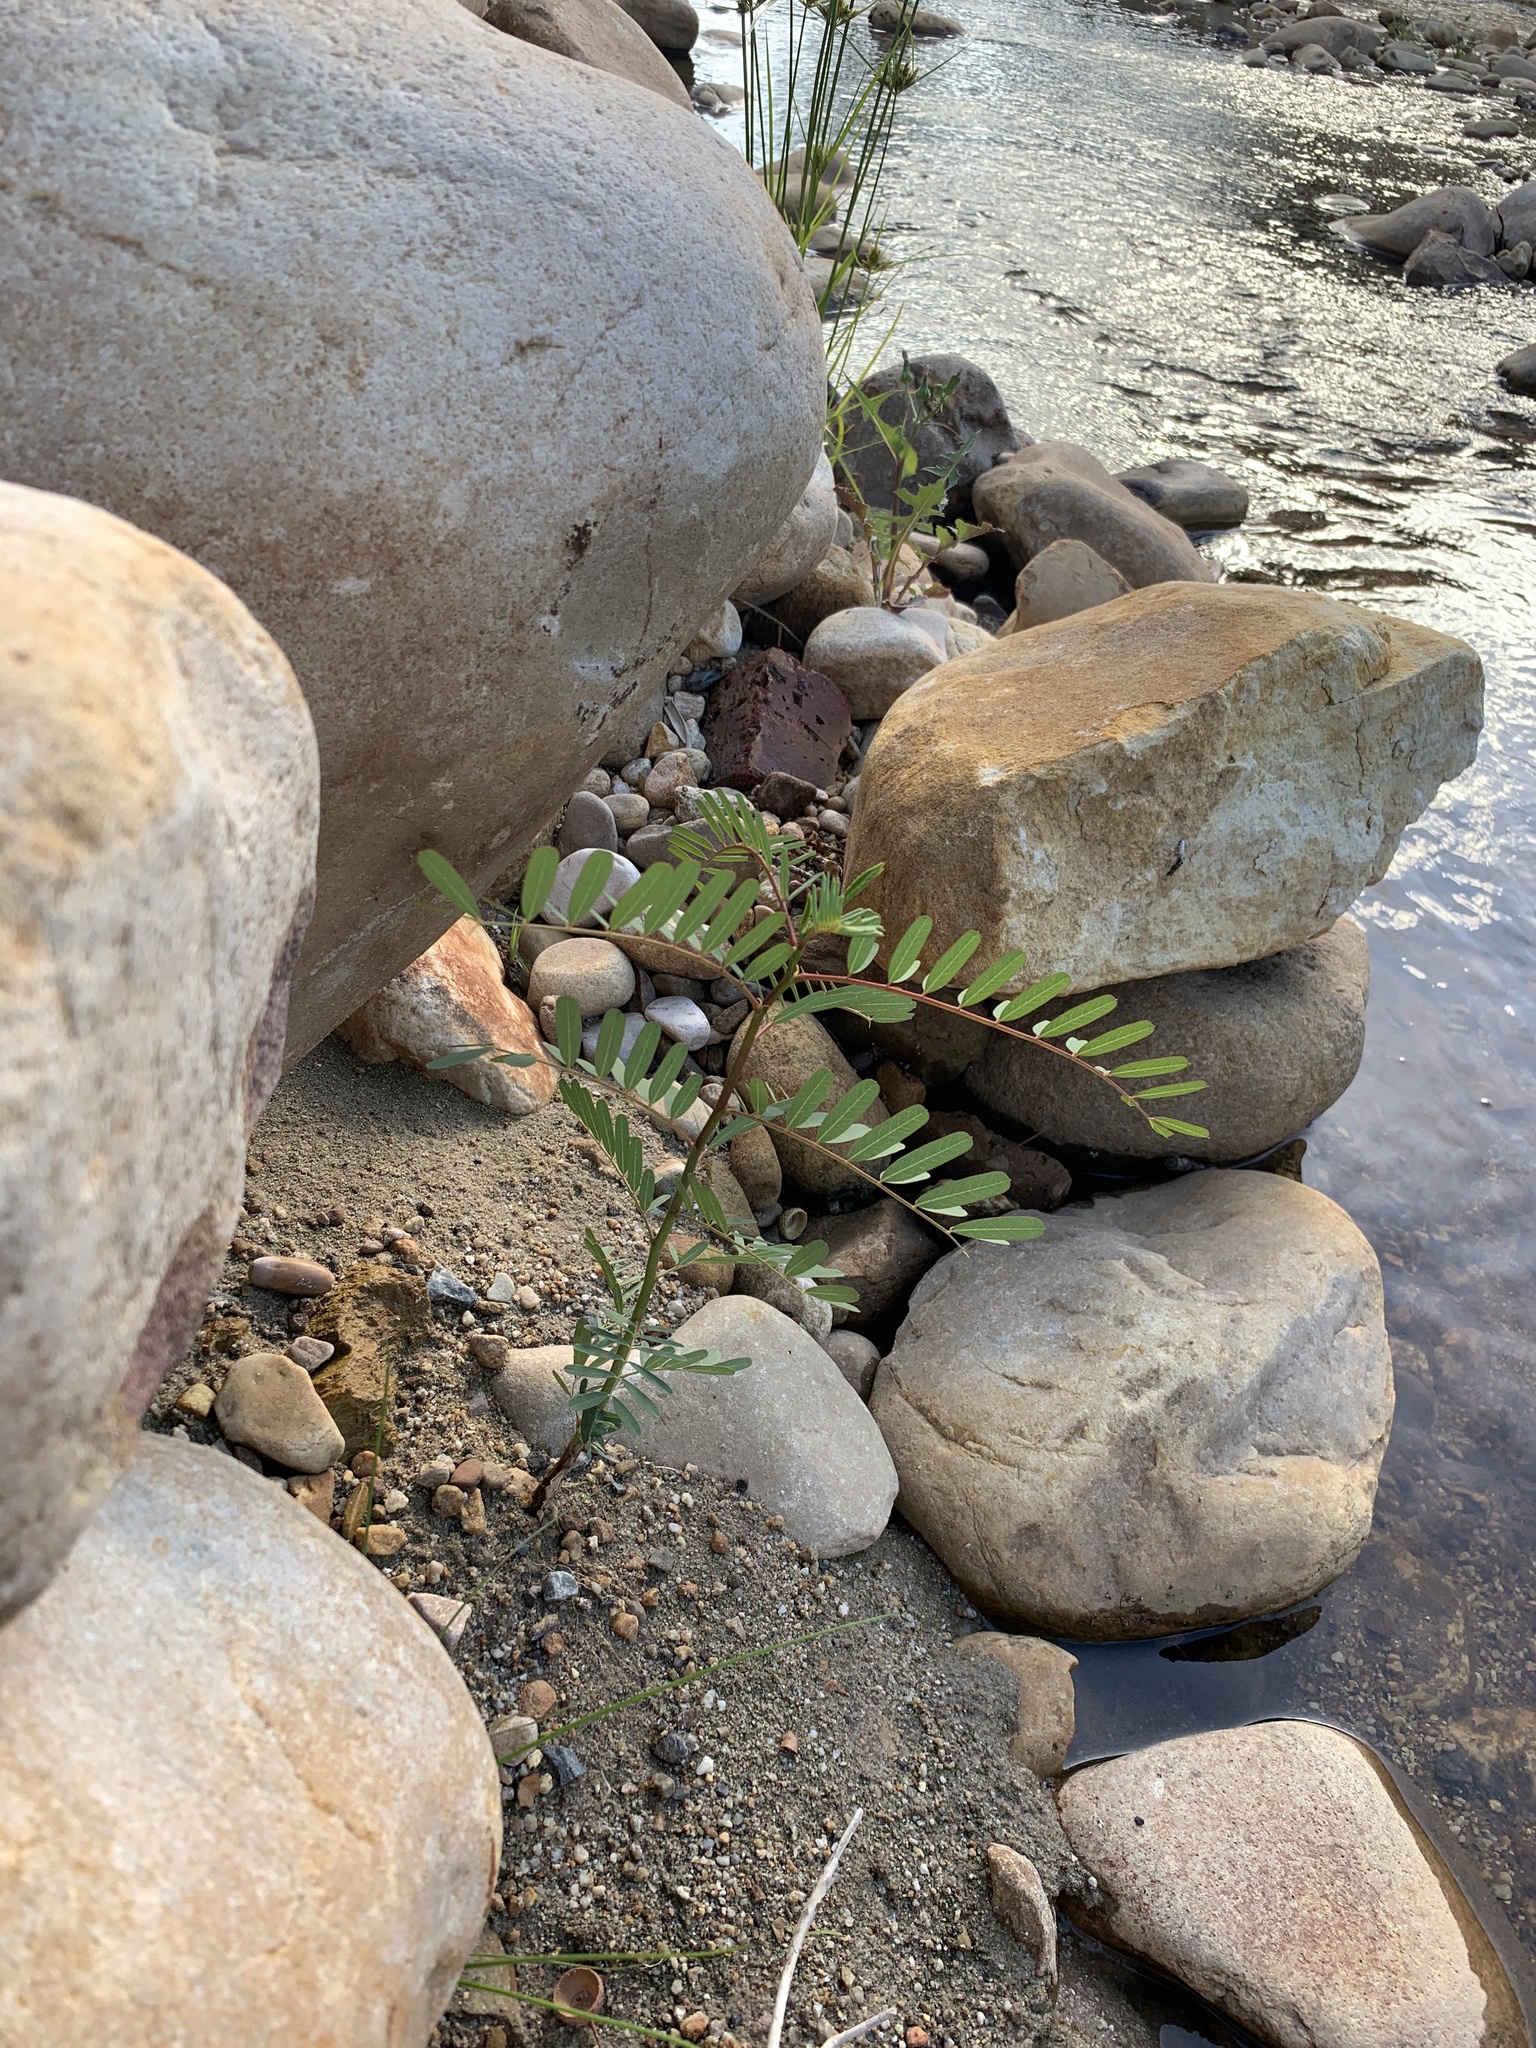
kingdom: Plantae
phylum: Tracheophyta
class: Magnoliopsida
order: Fabales
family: Fabaceae
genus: Sesbania
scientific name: Sesbania punicea
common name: Rattlebox
